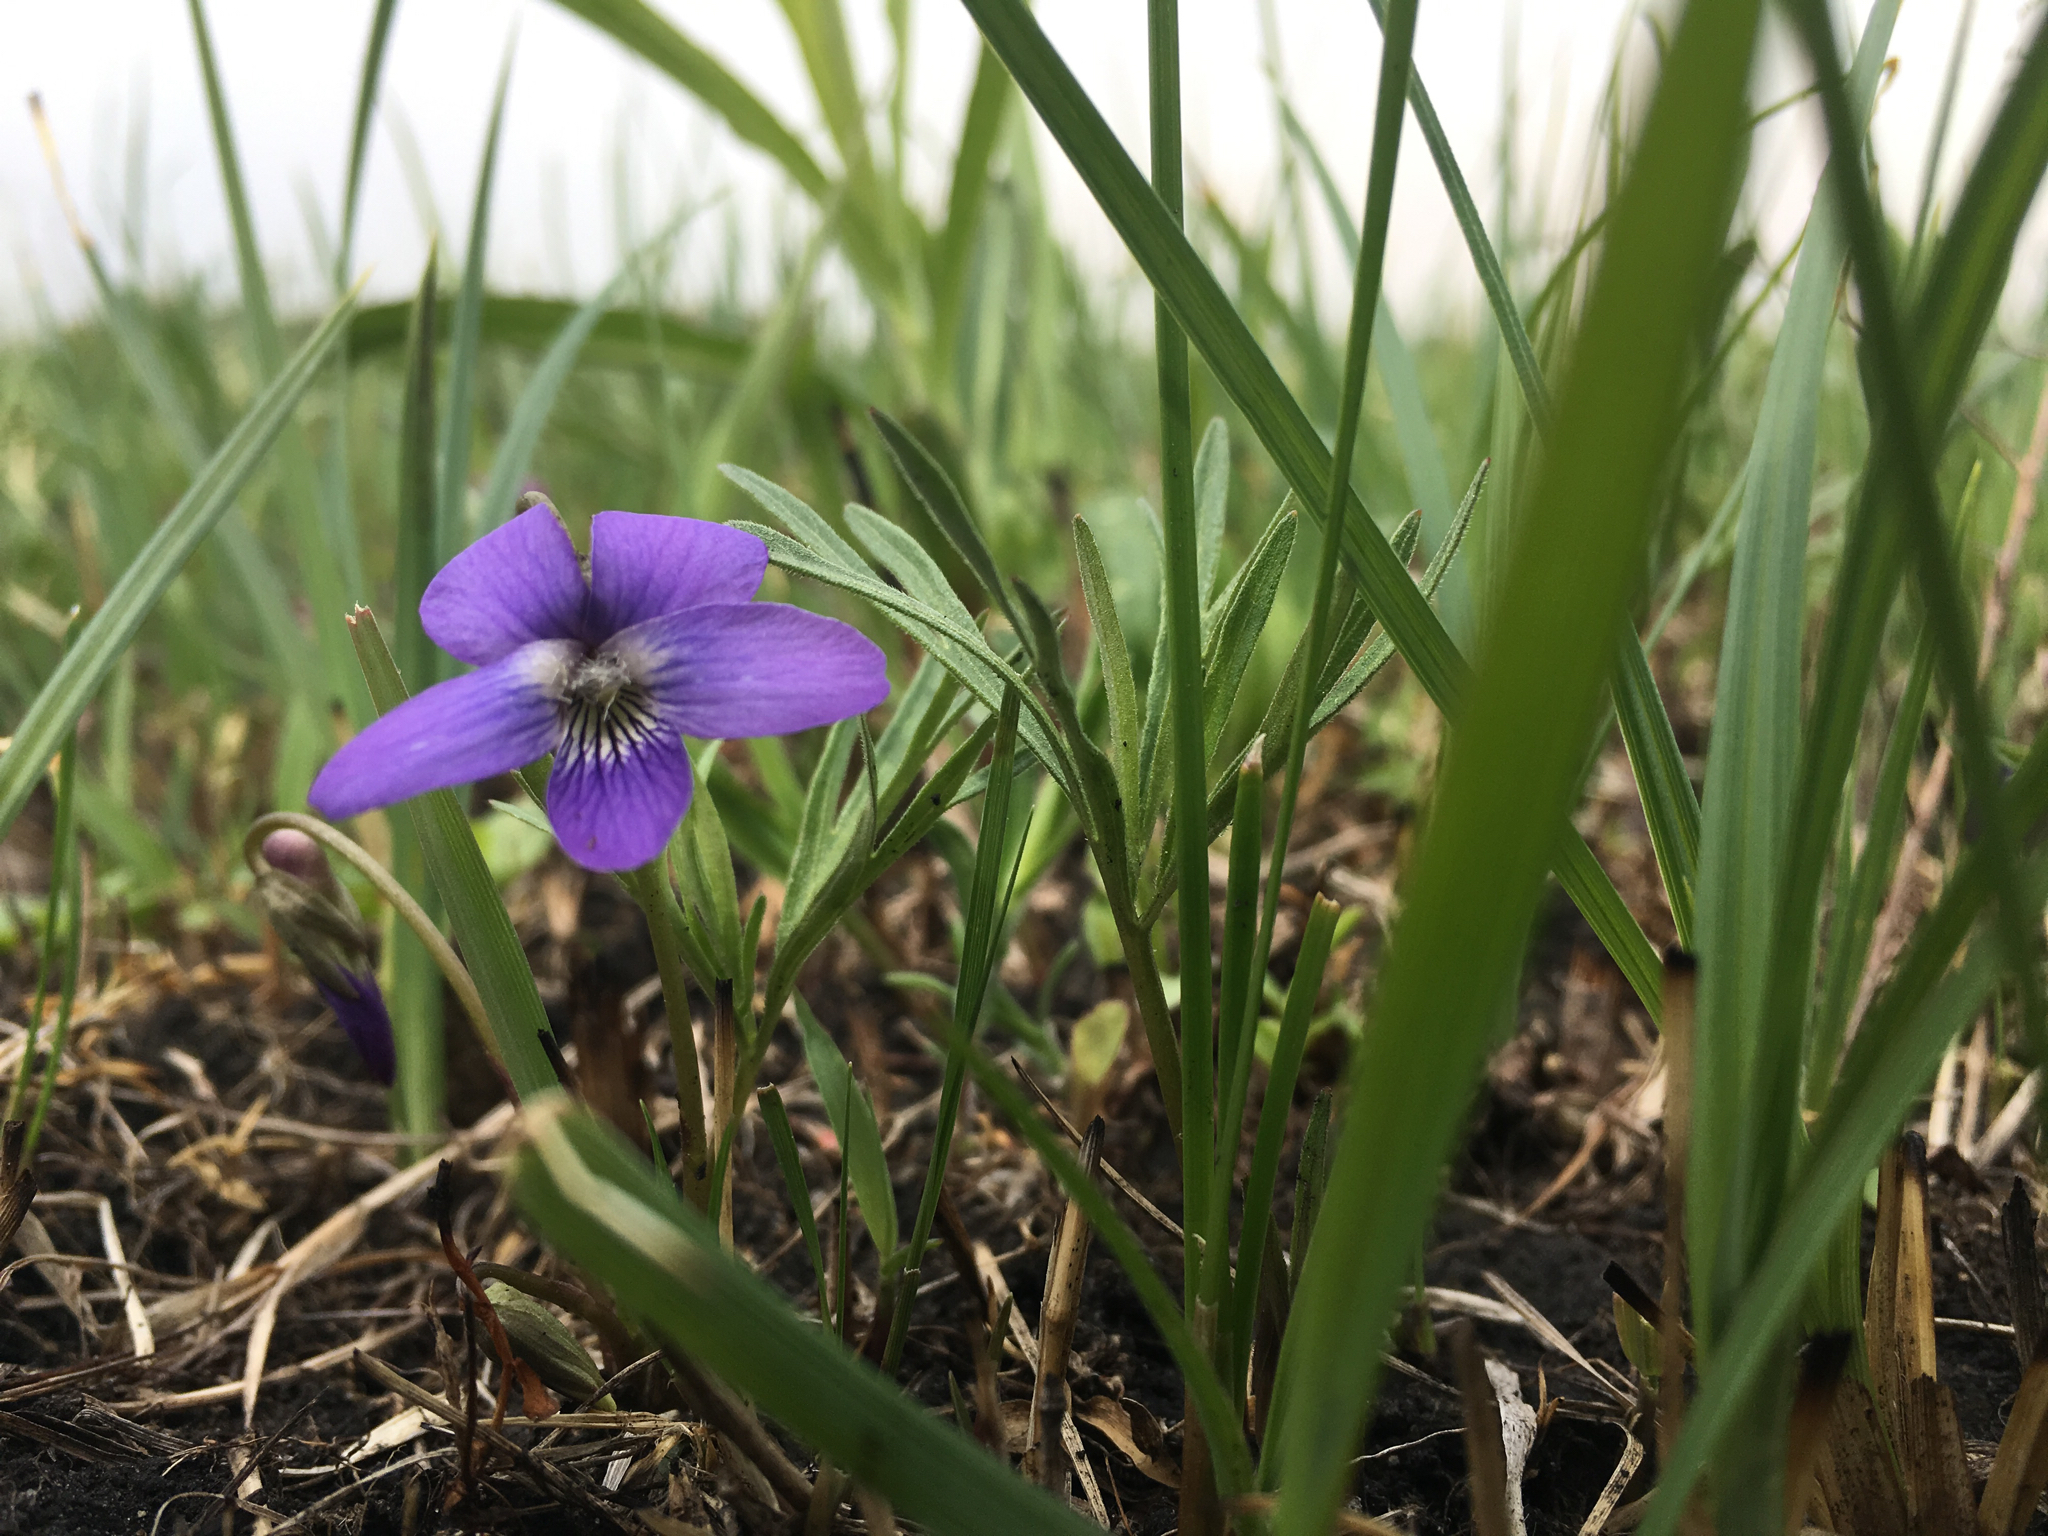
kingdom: Plantae
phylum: Tracheophyta
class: Magnoliopsida
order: Malpighiales
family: Violaceae
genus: Viola
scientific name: Viola pedatifida
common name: Prairie violet
